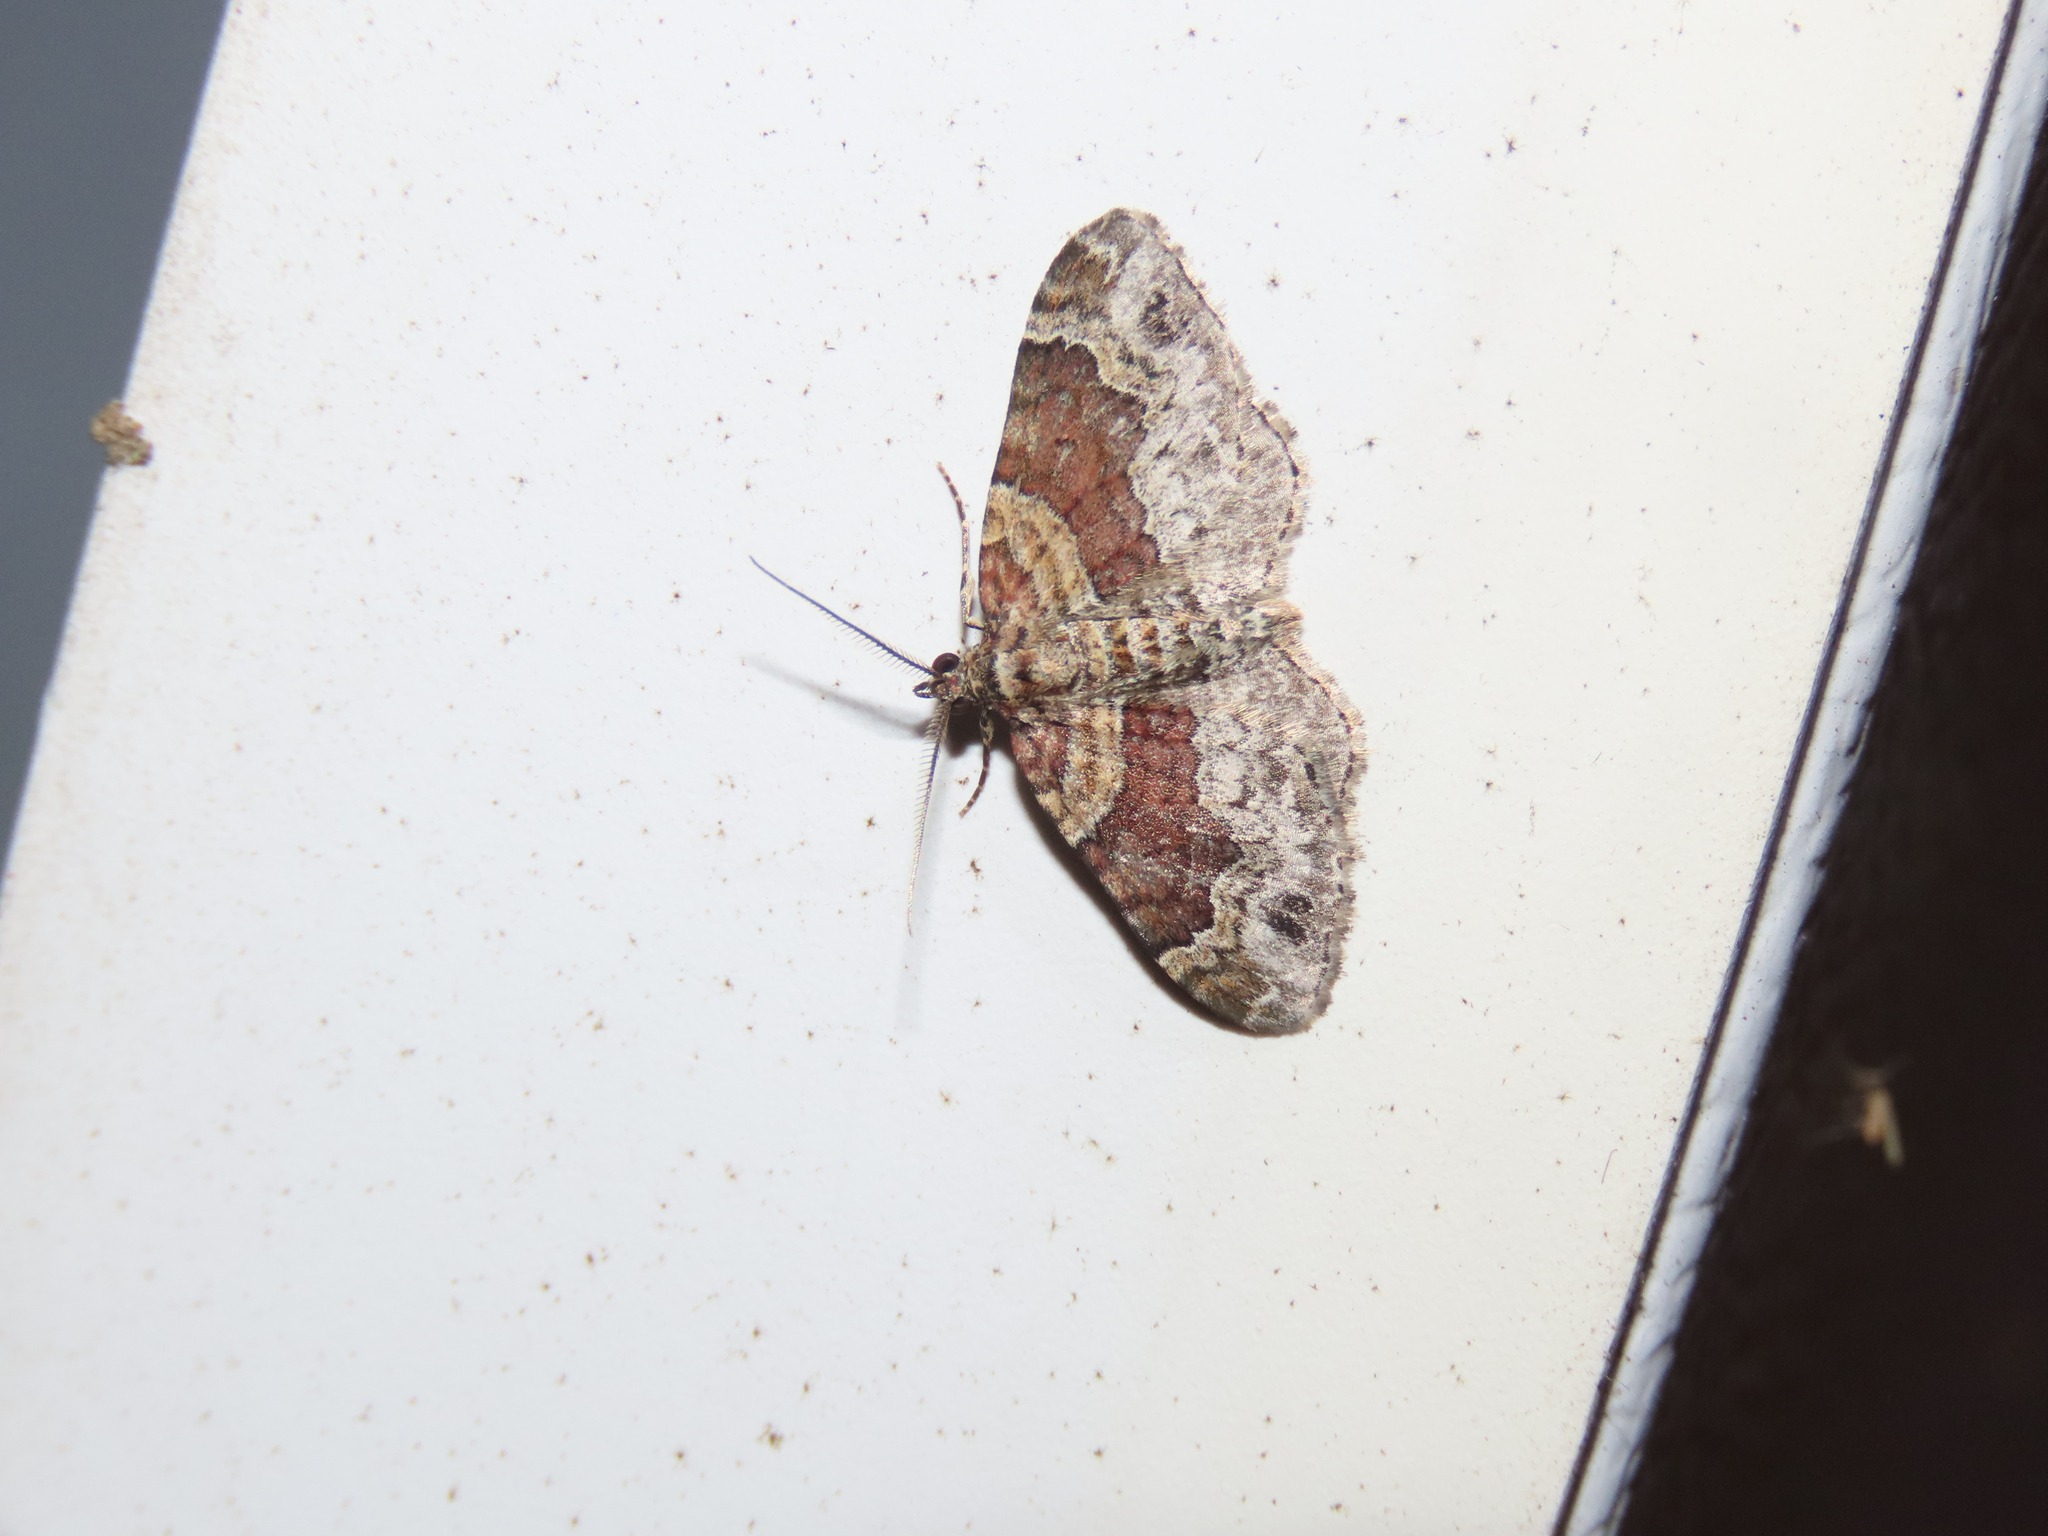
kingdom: Animalia
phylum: Arthropoda
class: Insecta
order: Lepidoptera
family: Geometridae
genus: Xanthorhoe
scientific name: Xanthorhoe ferrugata
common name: Dark-barred twin-spot carpet
